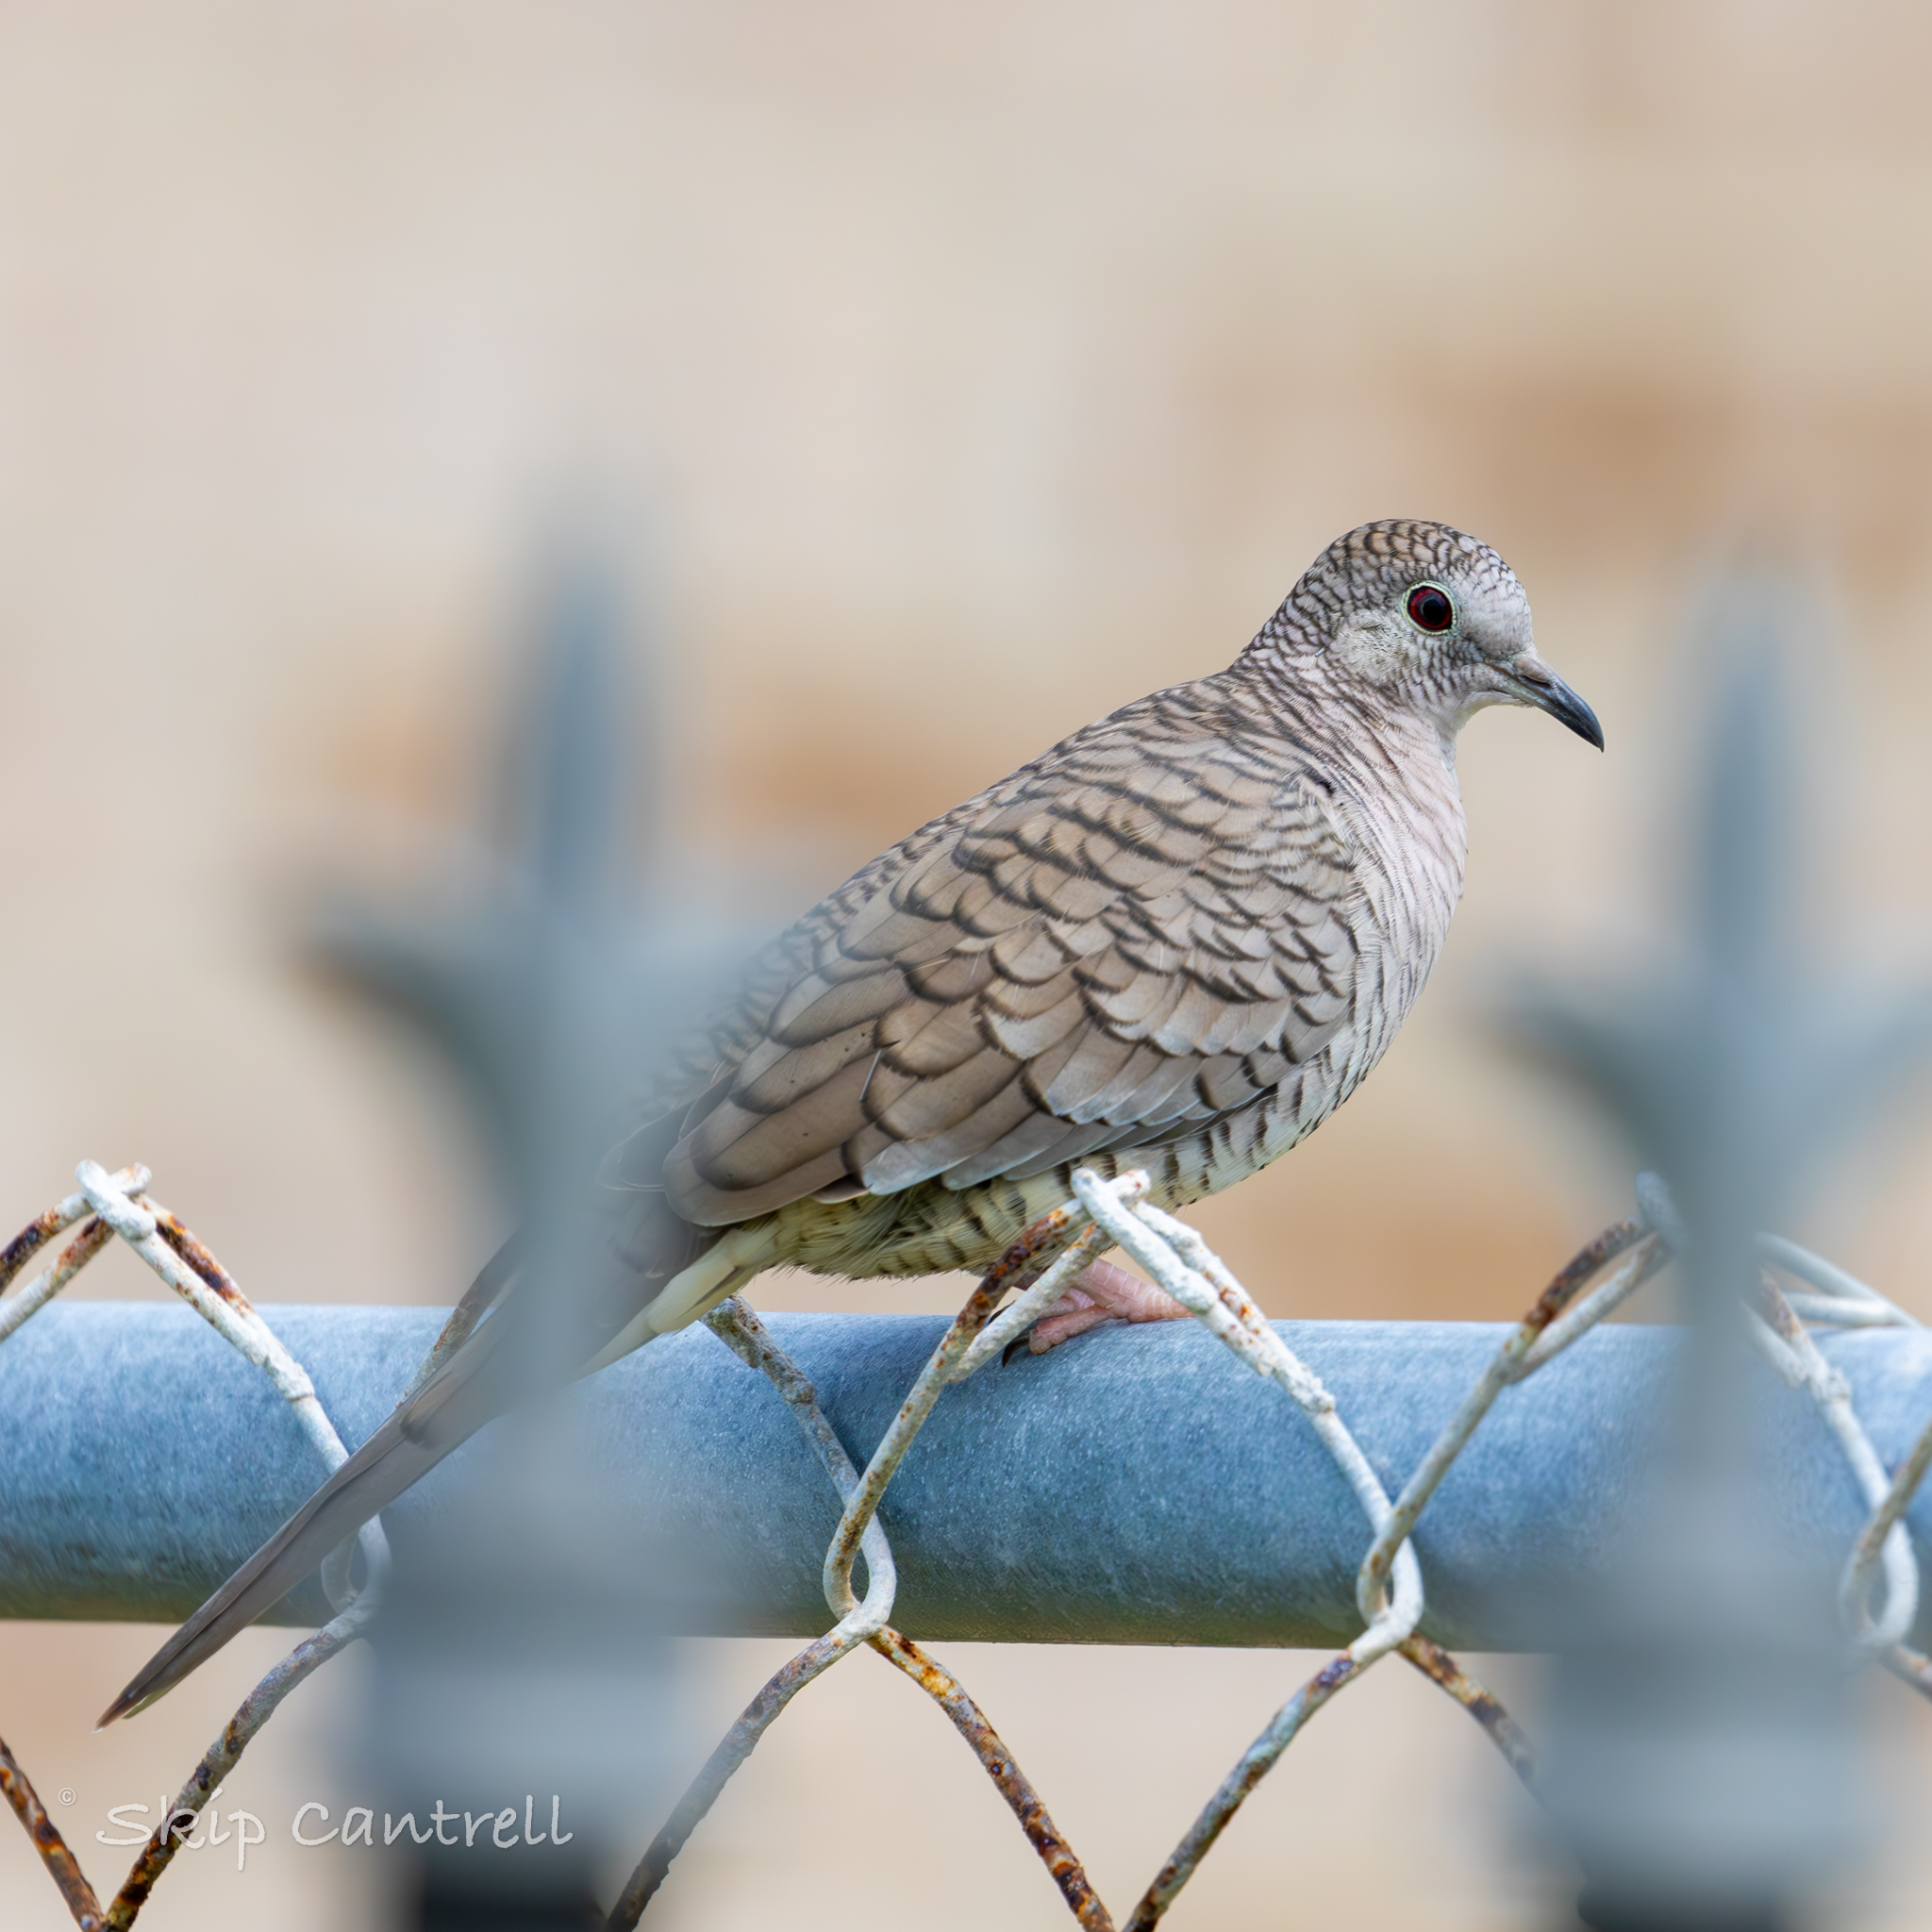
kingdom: Animalia
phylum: Chordata
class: Aves
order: Columbiformes
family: Columbidae
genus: Columbina
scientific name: Columbina inca
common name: Inca dove
